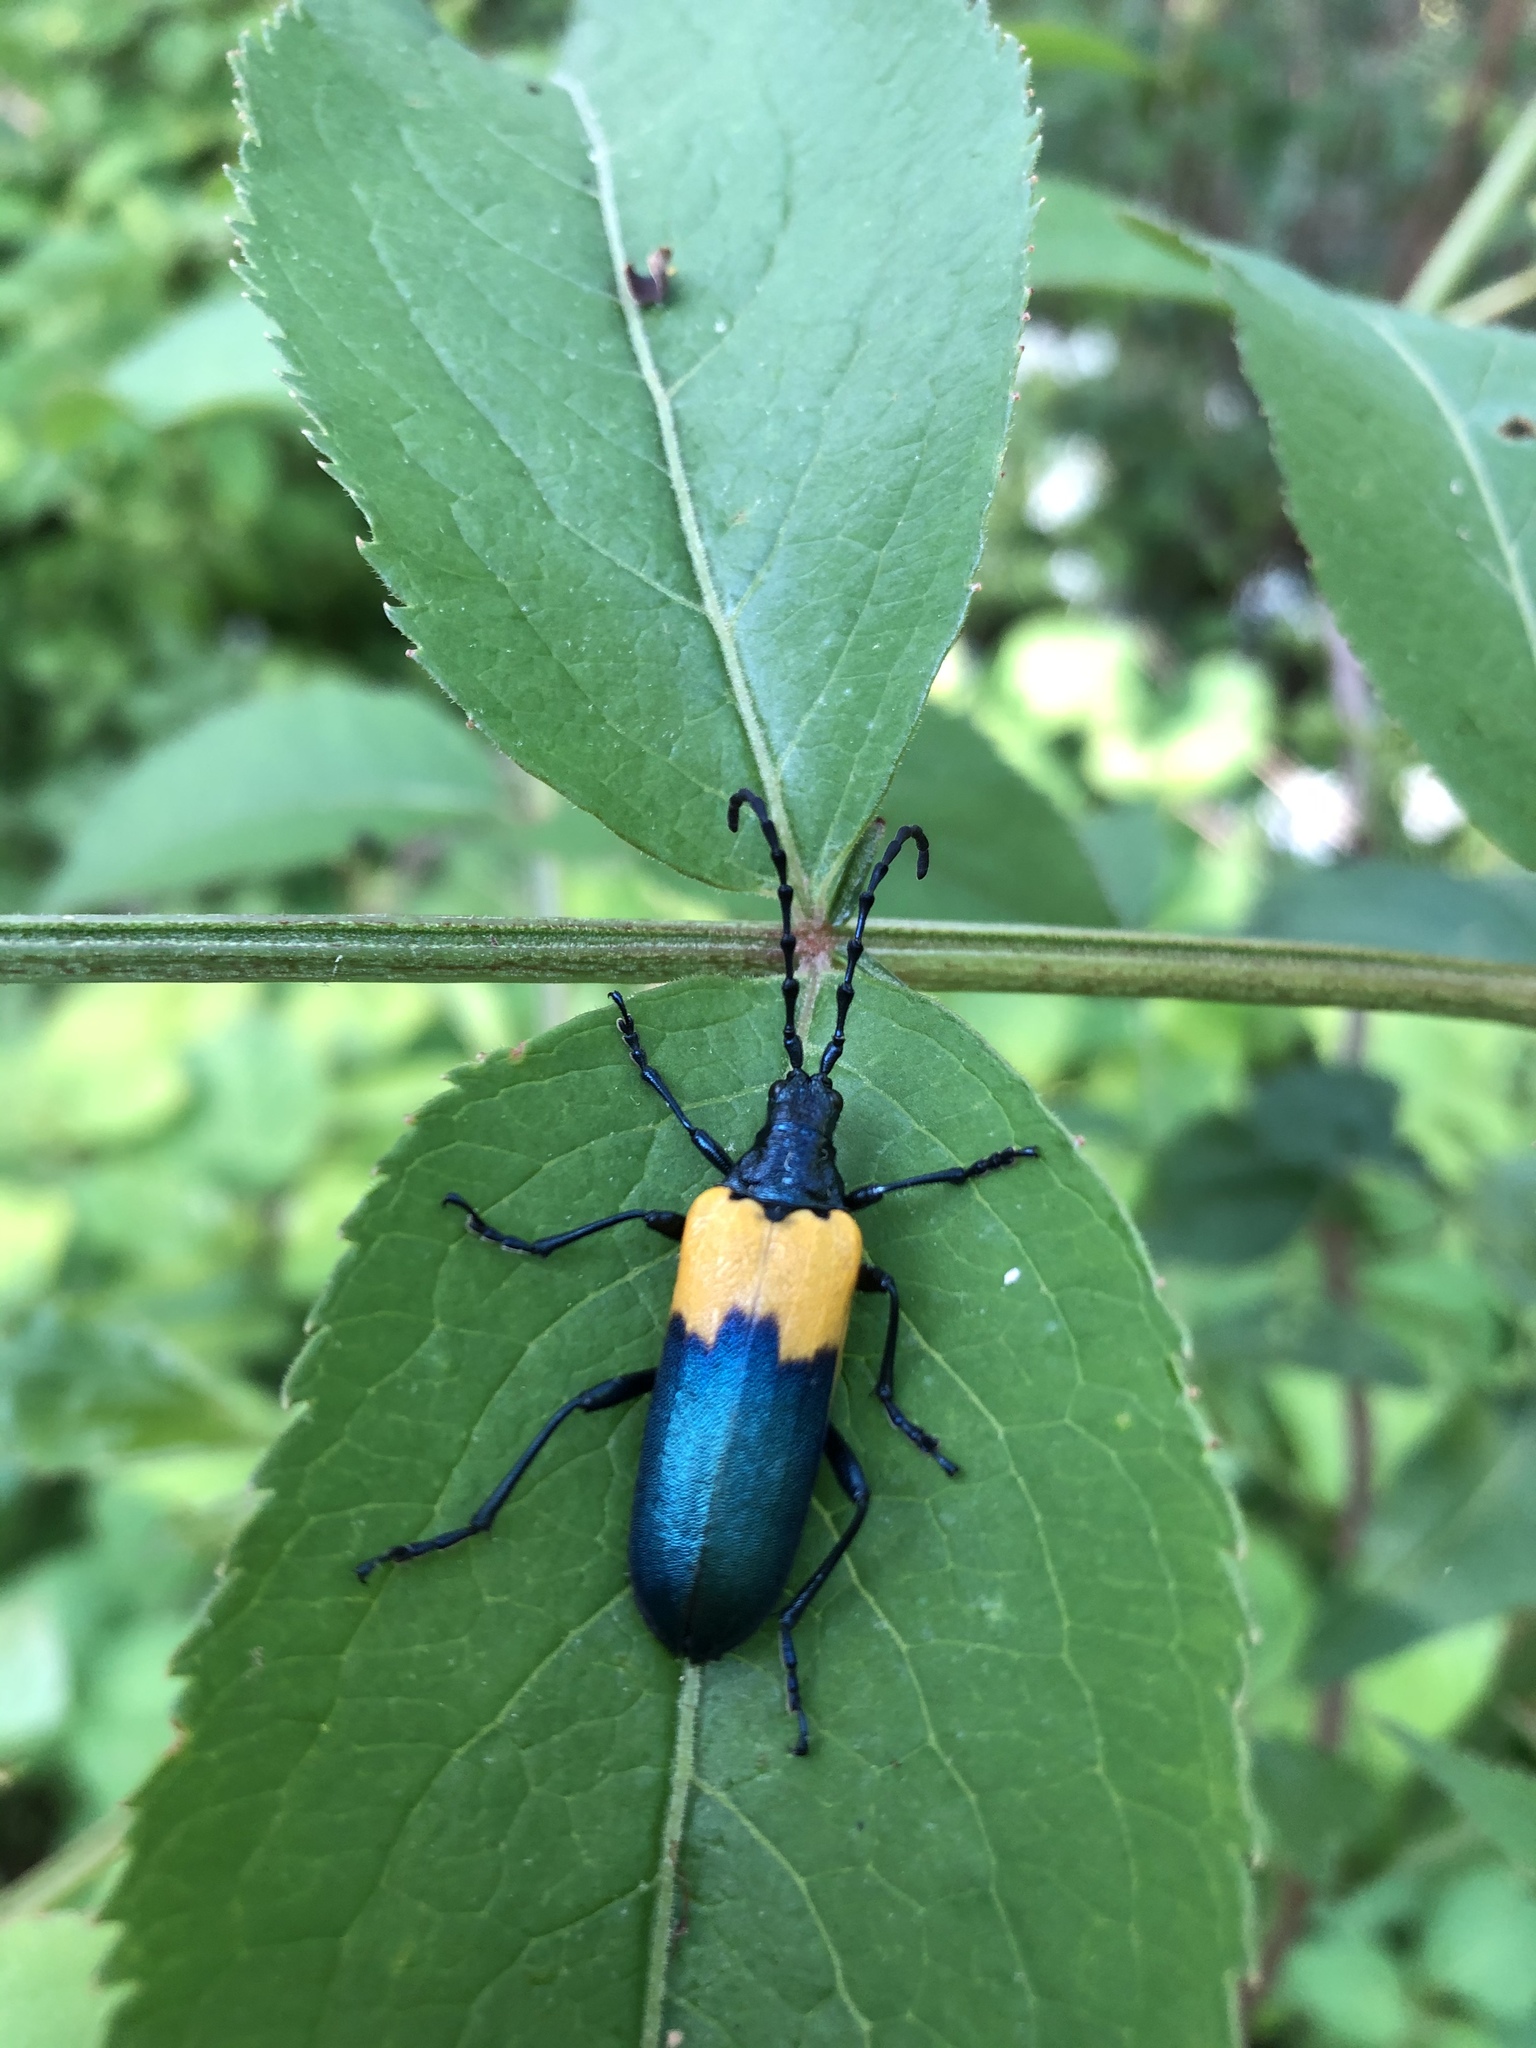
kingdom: Animalia
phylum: Arthropoda
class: Insecta
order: Coleoptera
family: Cerambycidae
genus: Desmocerus
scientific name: Desmocerus palliatus
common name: Eastern elderberry borer
